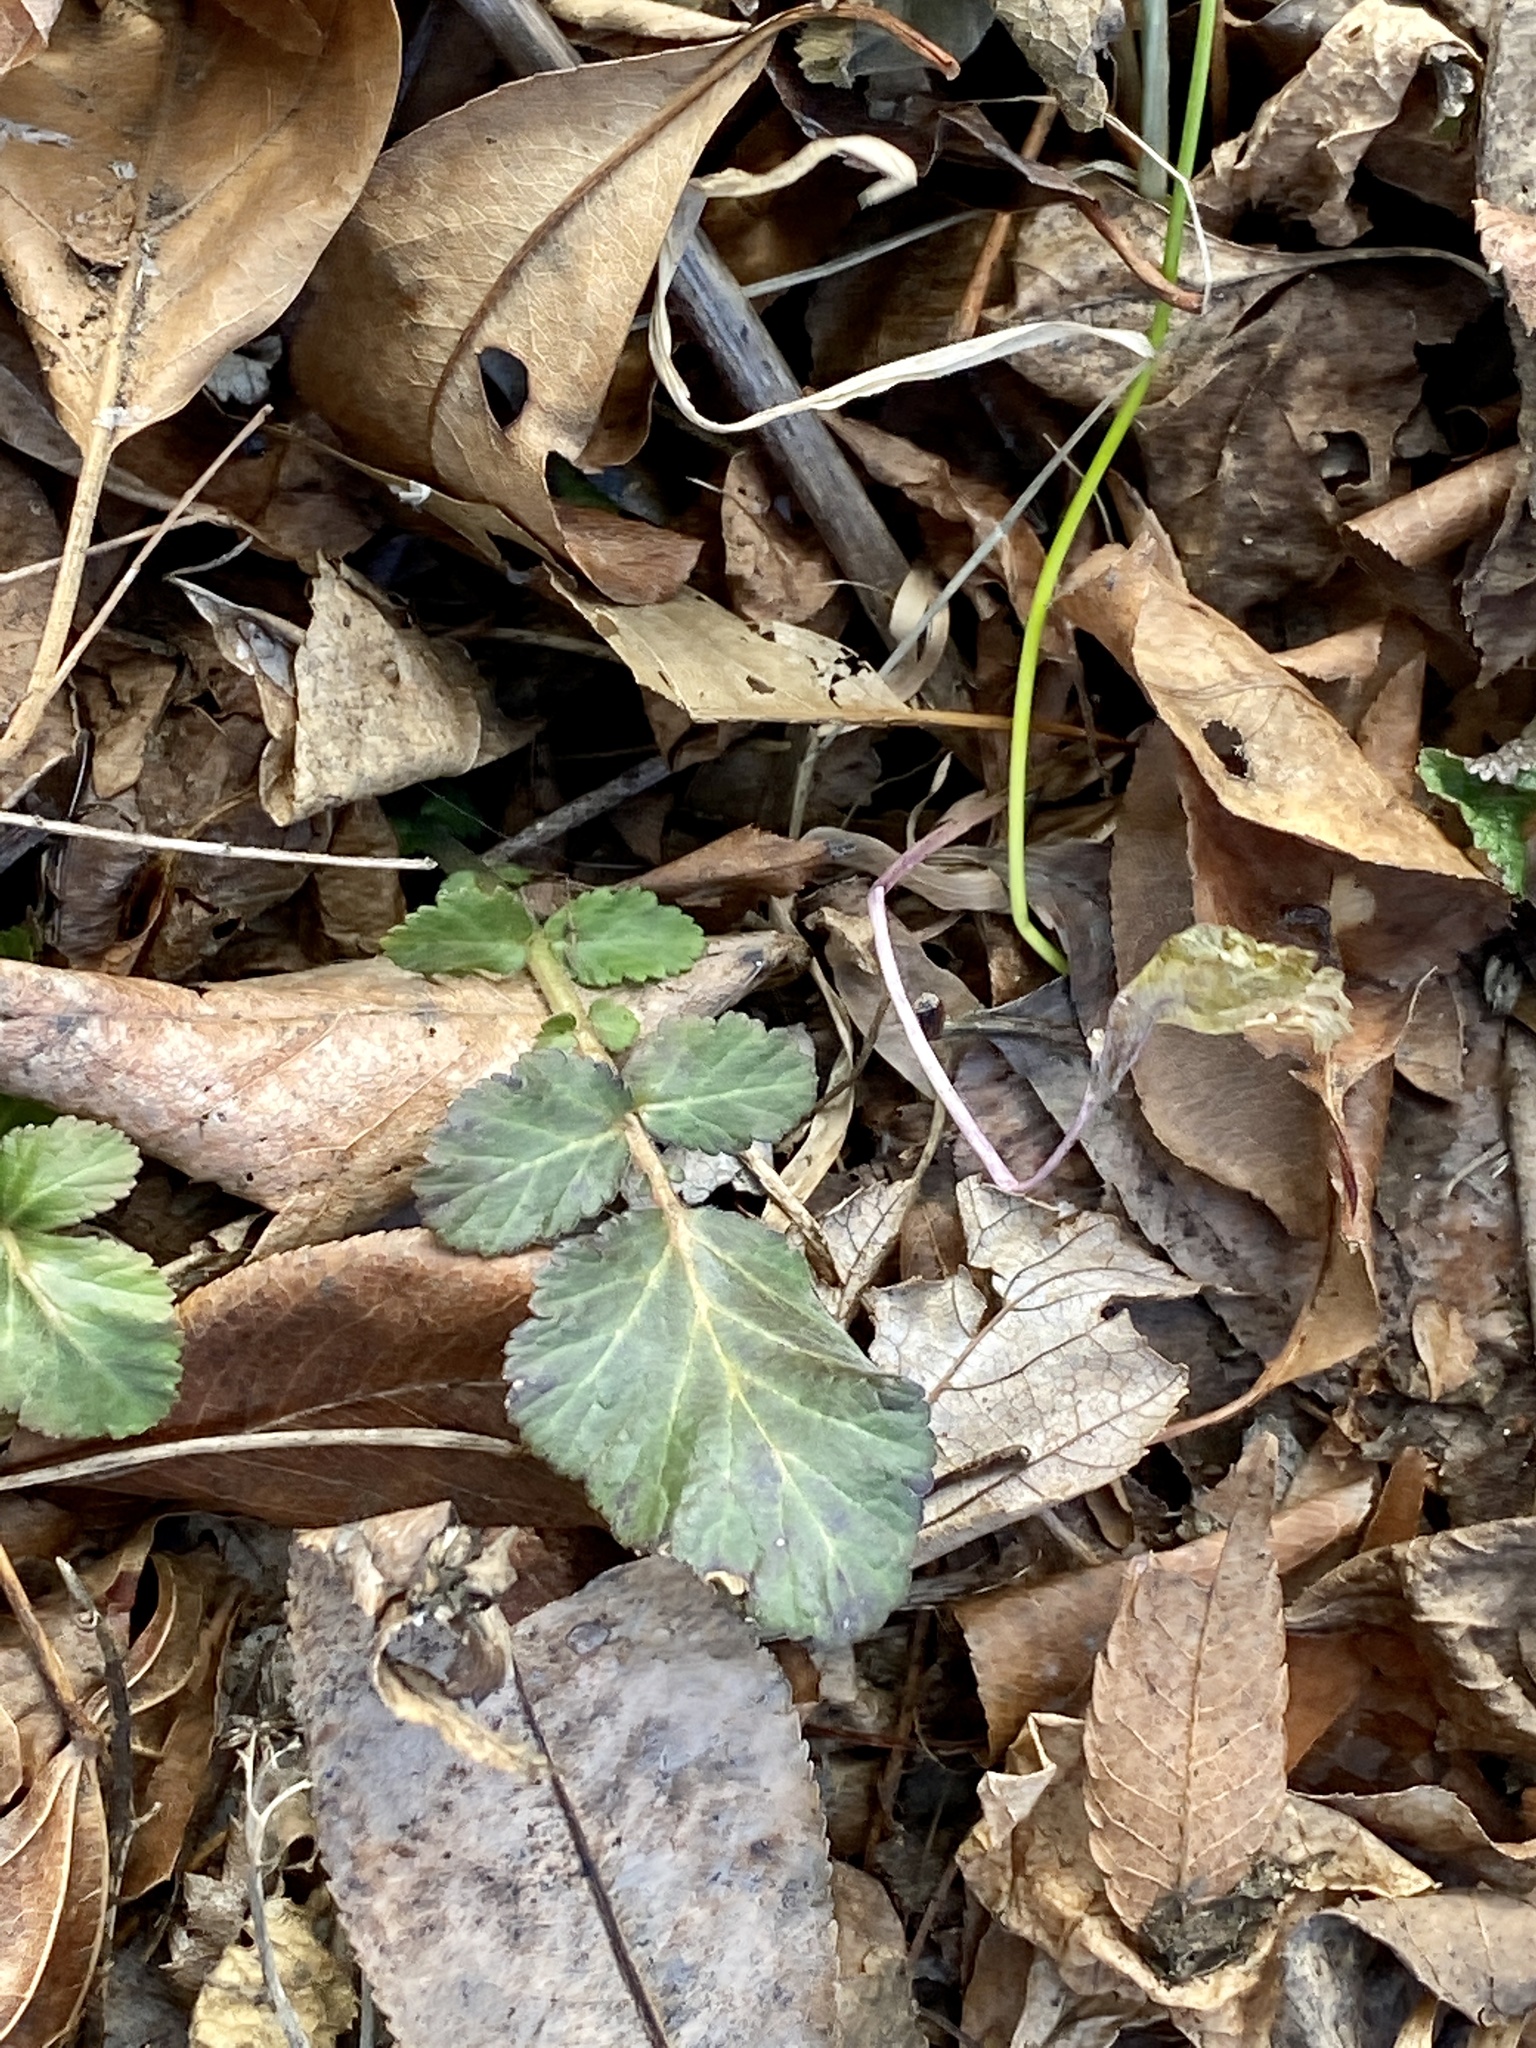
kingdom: Plantae
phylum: Tracheophyta
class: Magnoliopsida
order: Rosales
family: Rosaceae
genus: Geum
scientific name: Geum canadense
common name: White avens
